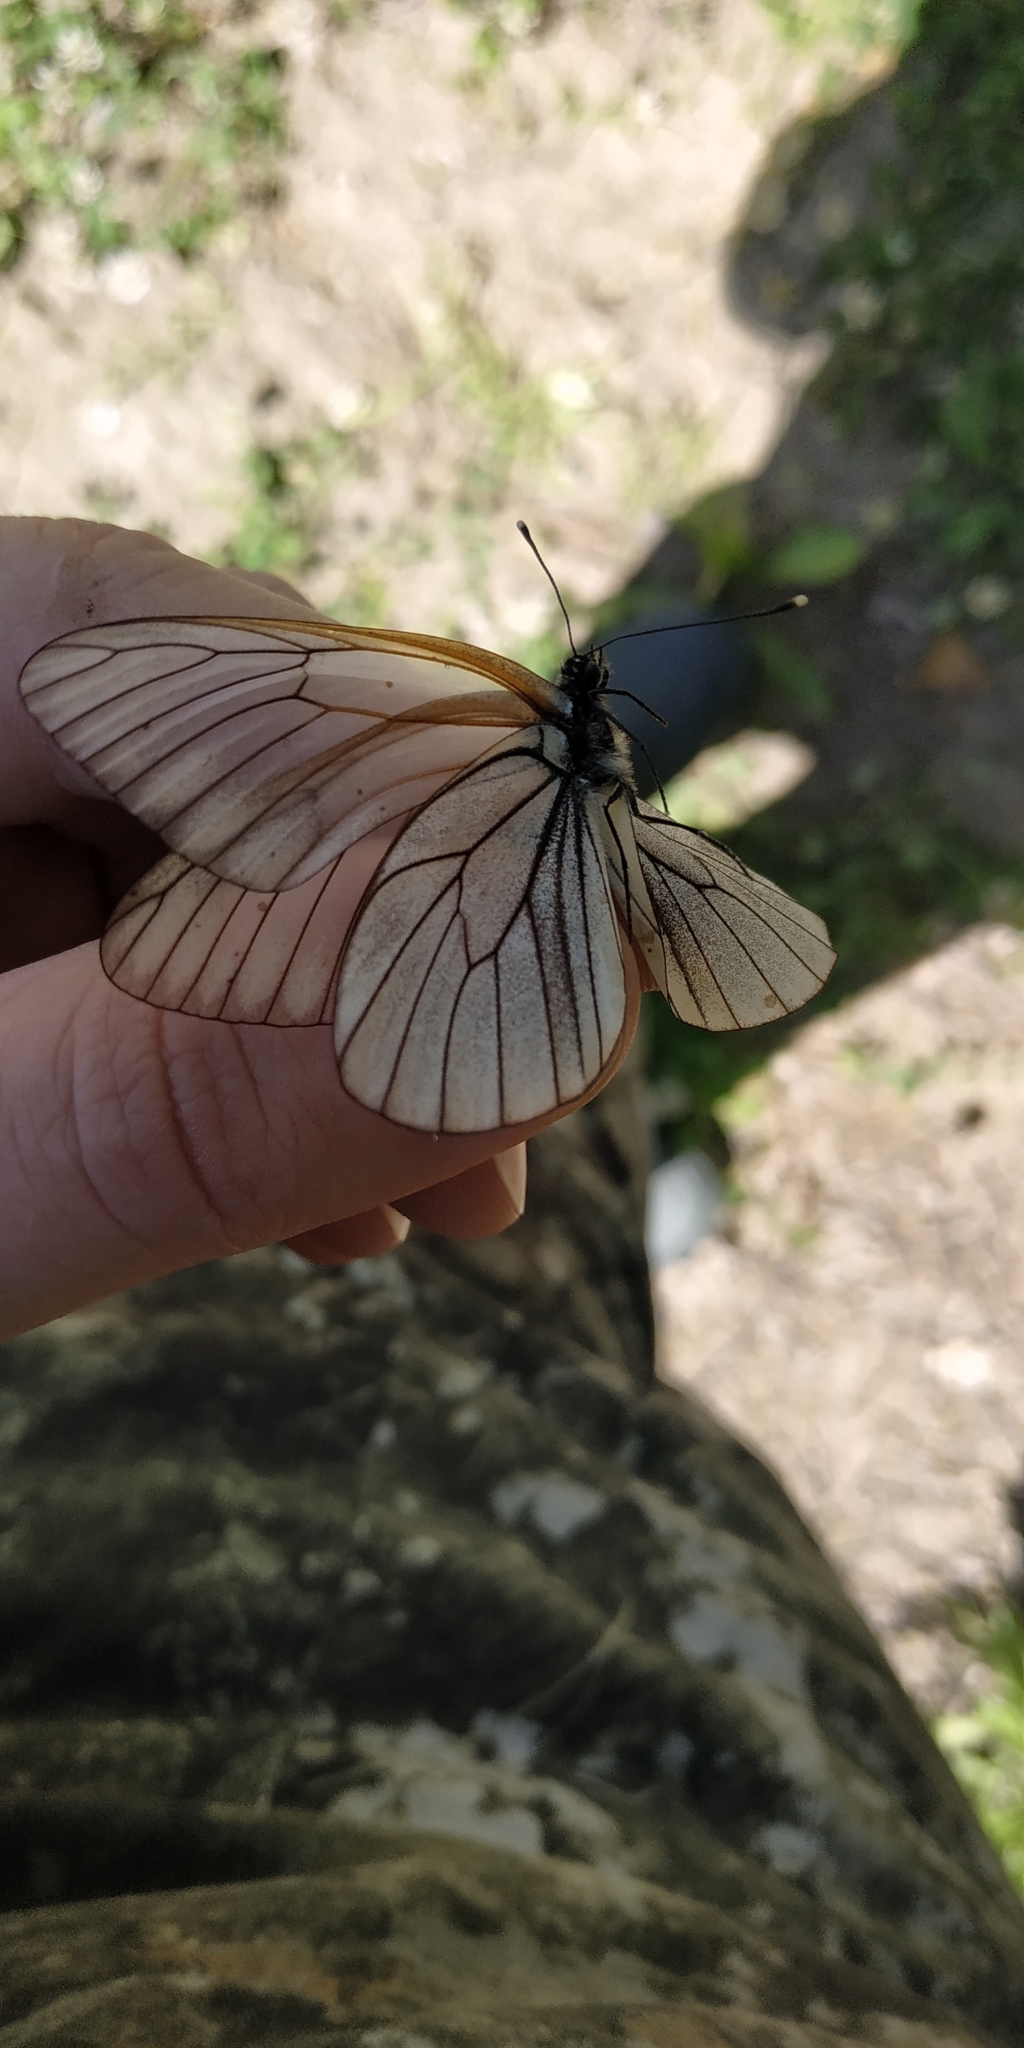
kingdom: Animalia
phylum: Arthropoda
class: Insecta
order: Lepidoptera
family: Pieridae
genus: Aporia
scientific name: Aporia crataegi
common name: Black-veined white
